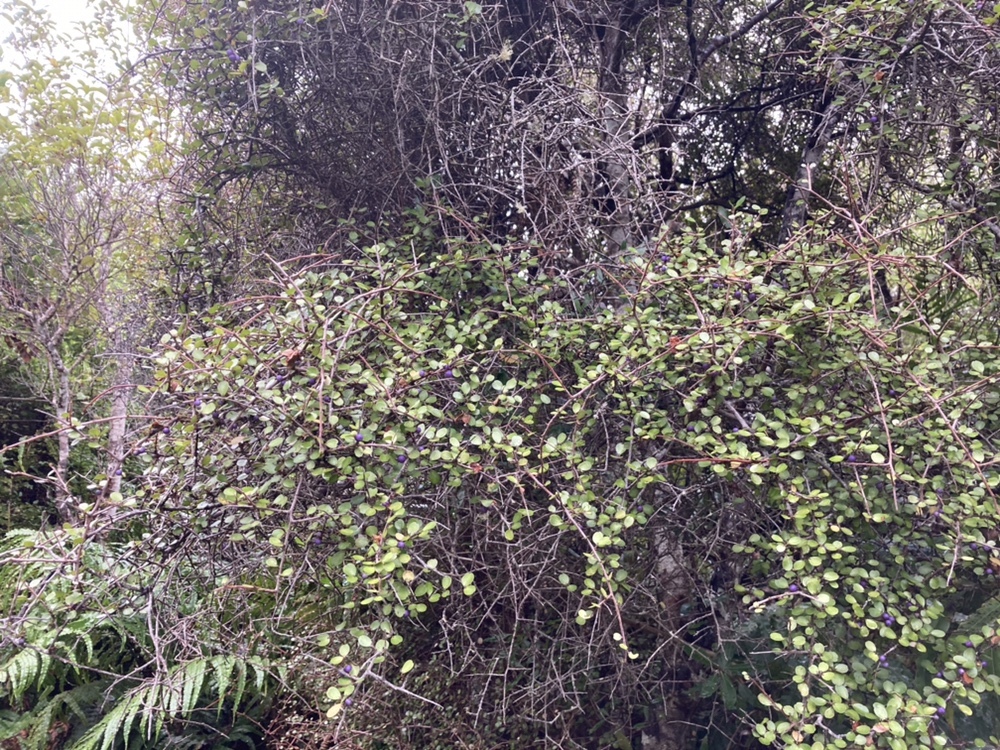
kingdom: Plantae
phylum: Tracheophyta
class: Magnoliopsida
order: Ericales
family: Primulaceae
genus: Myrsine
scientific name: Myrsine divaricata
